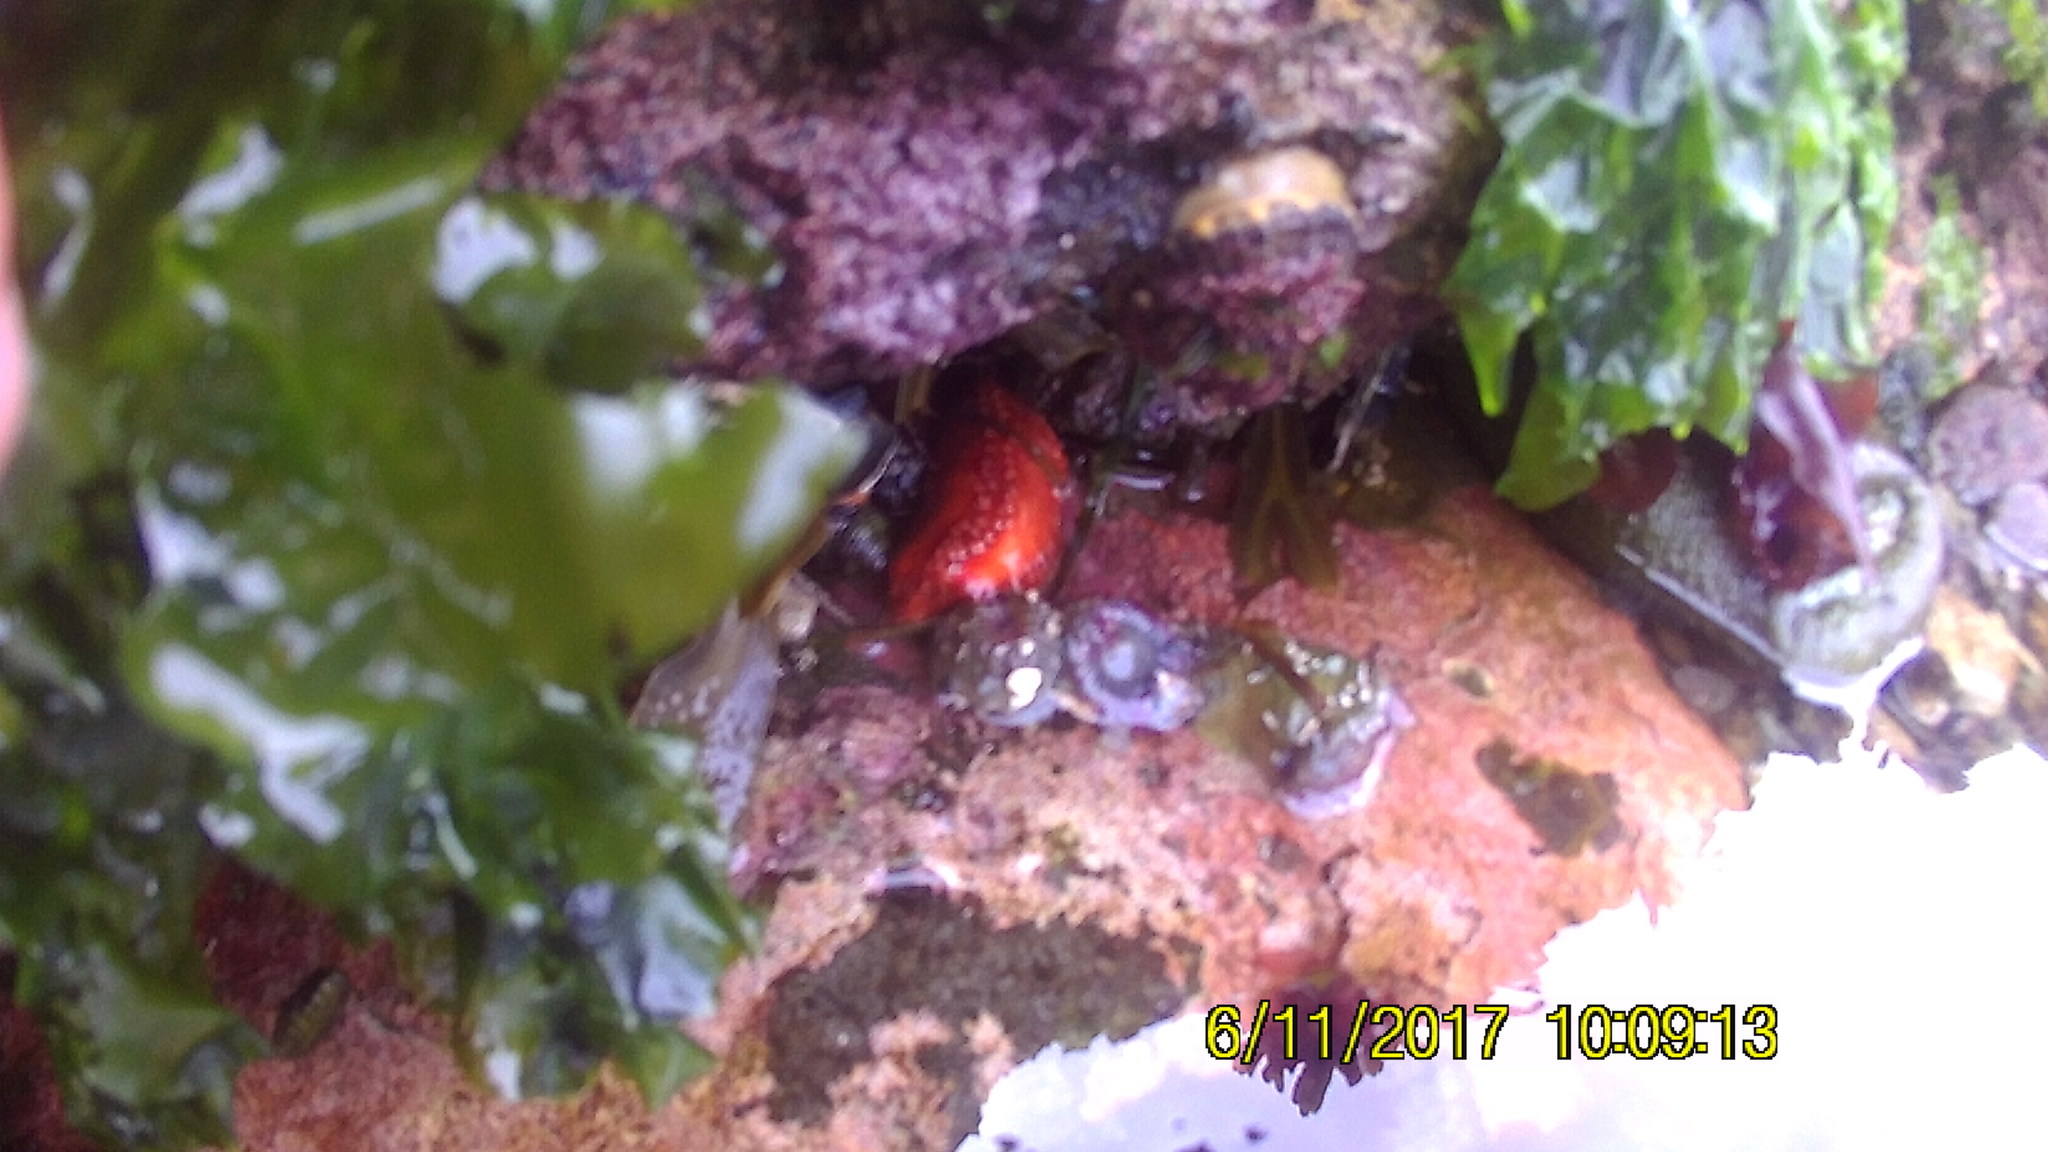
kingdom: Animalia
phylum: Echinodermata
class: Holothuroidea
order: Dendrochirotida
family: Cucumariidae
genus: Cucumaria
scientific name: Cucumaria miniata
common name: Orange sea cucumber
